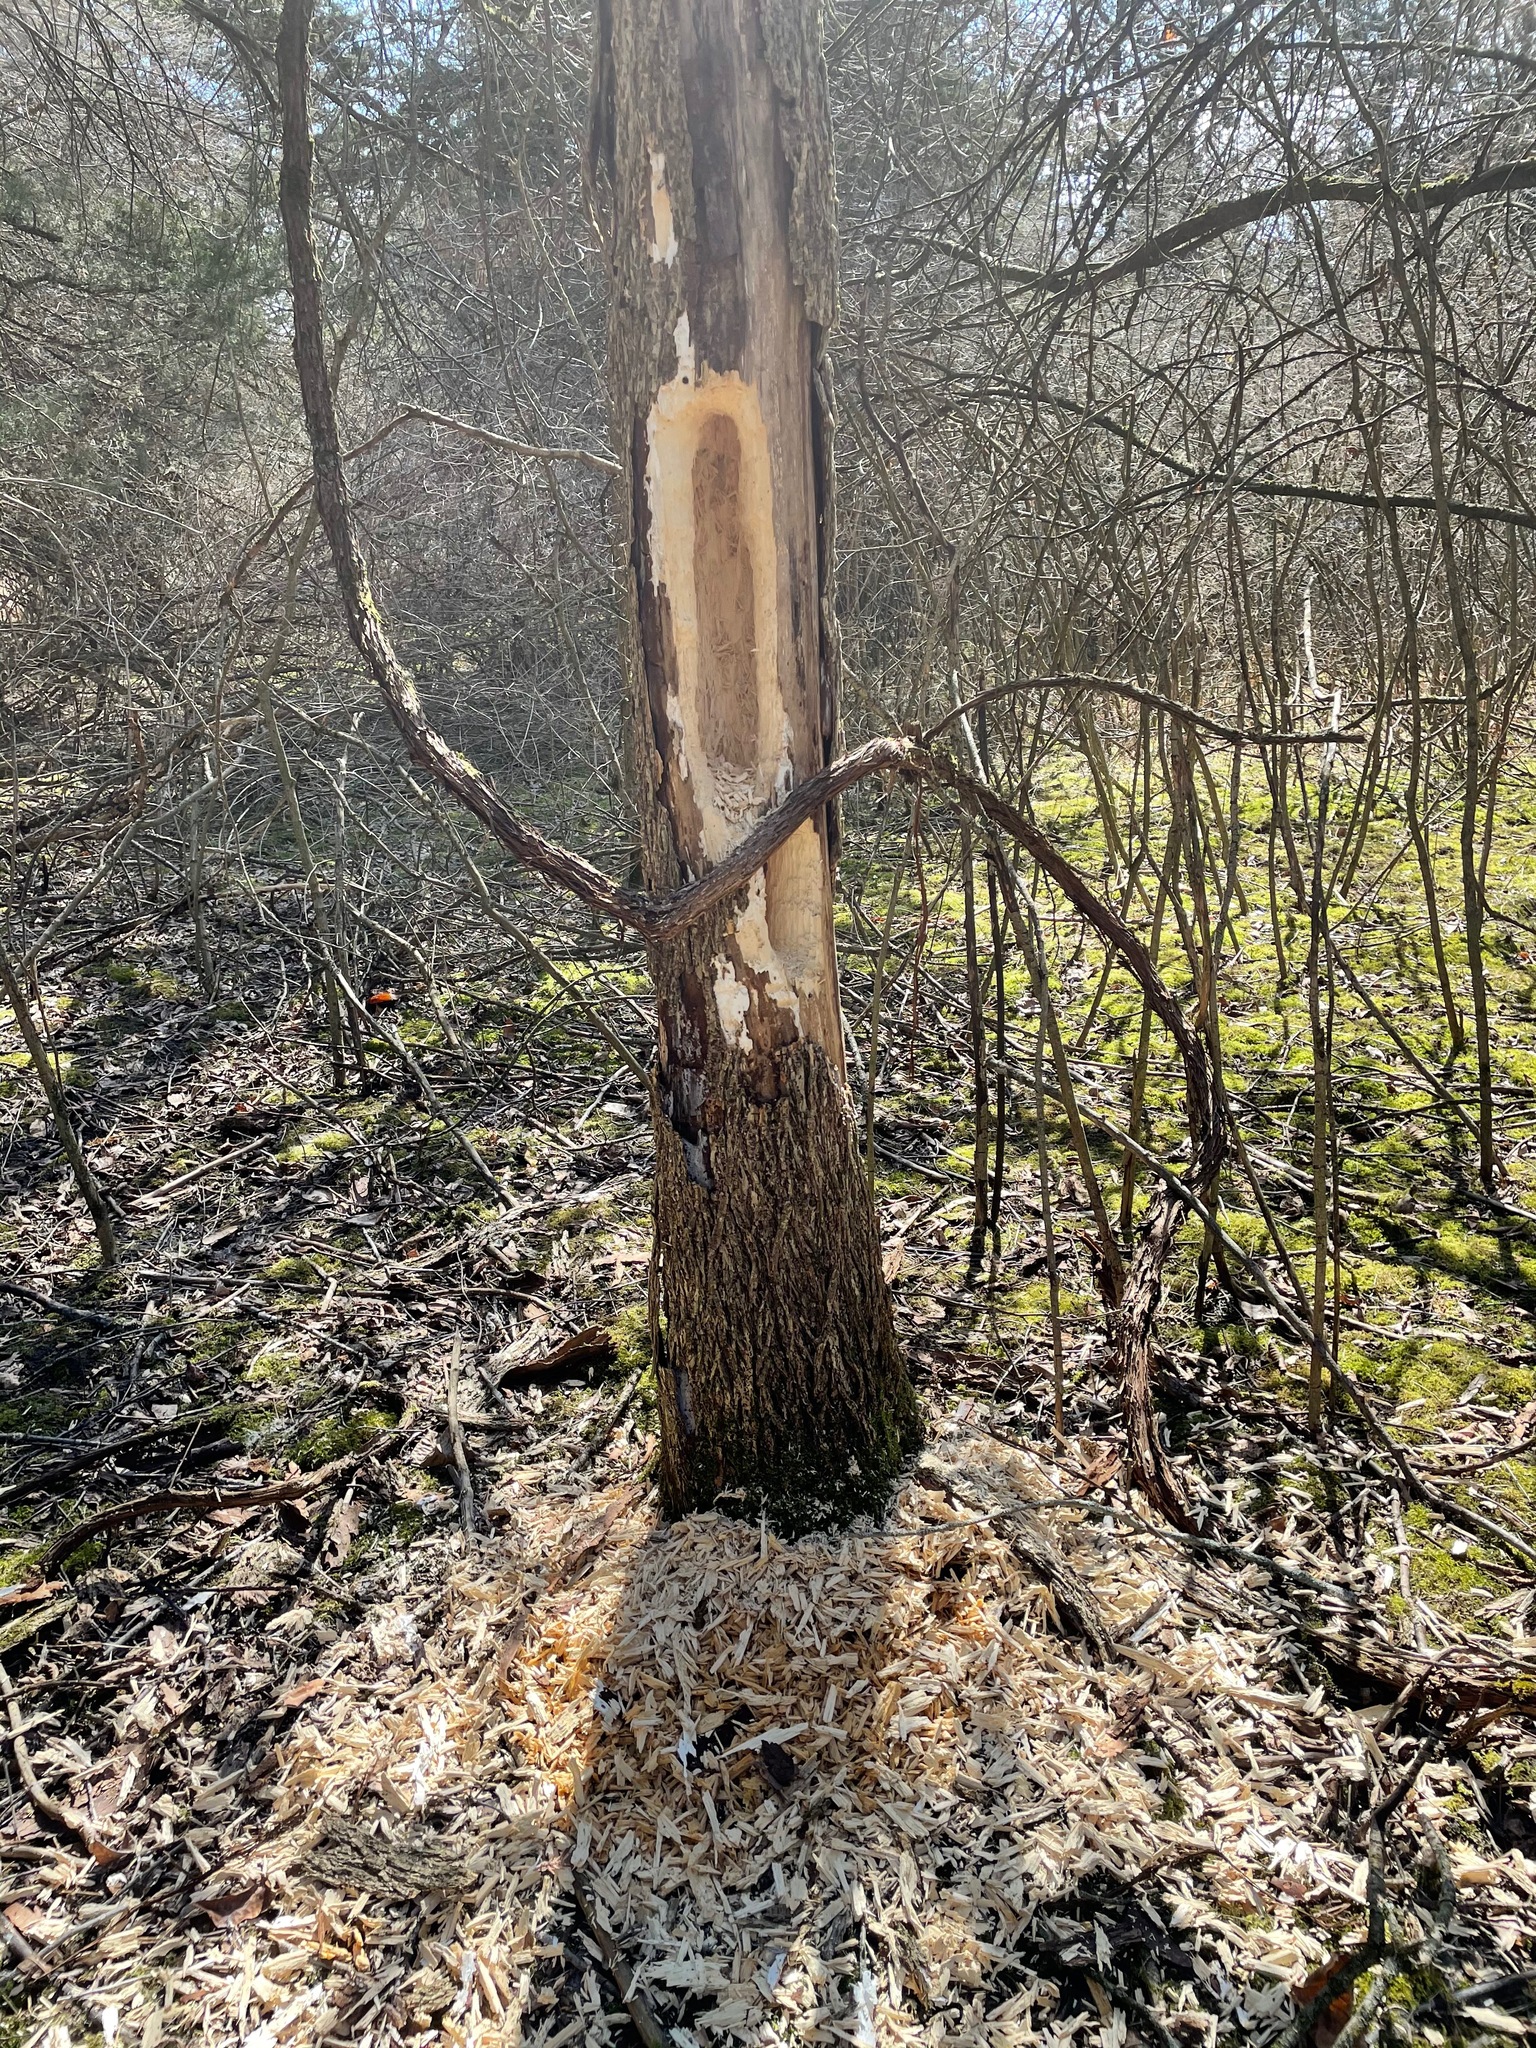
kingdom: Animalia
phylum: Chordata
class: Aves
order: Piciformes
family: Picidae
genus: Dryocopus
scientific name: Dryocopus pileatus
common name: Pileated woodpecker
